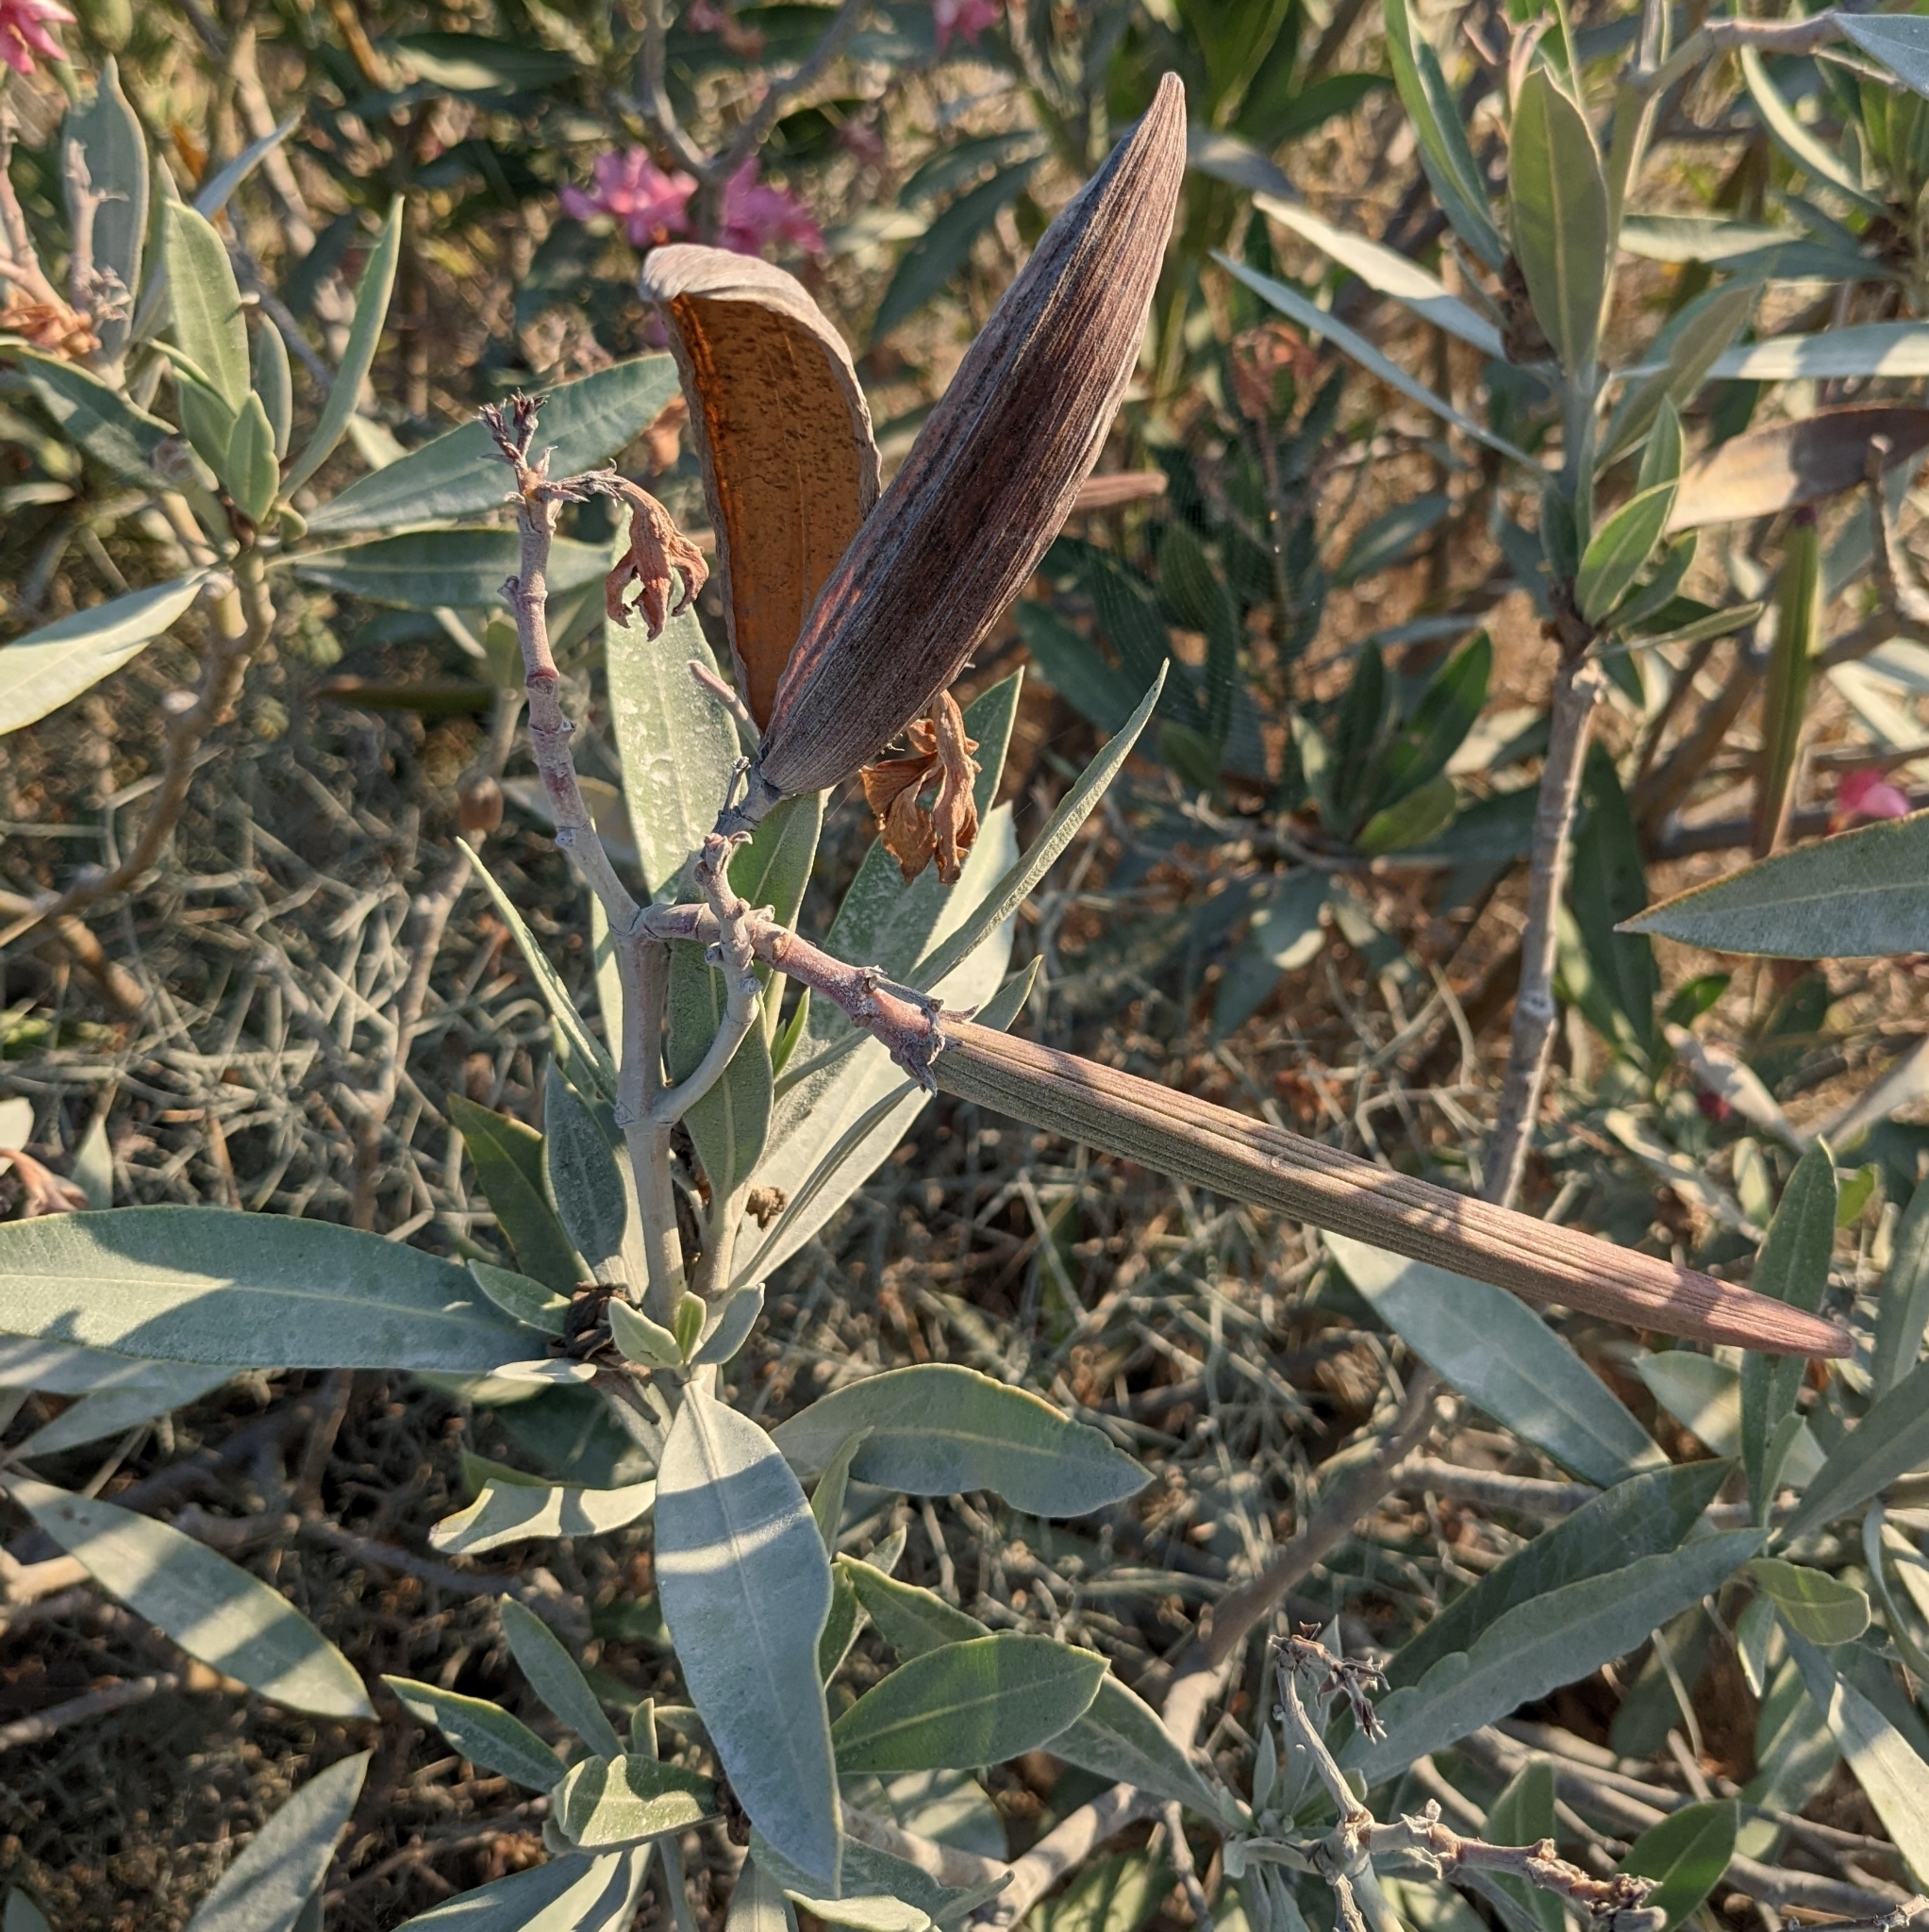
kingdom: Plantae
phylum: Tracheophyta
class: Magnoliopsida
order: Gentianales
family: Apocynaceae
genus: Nerium
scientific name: Nerium oleander
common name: Oleander
